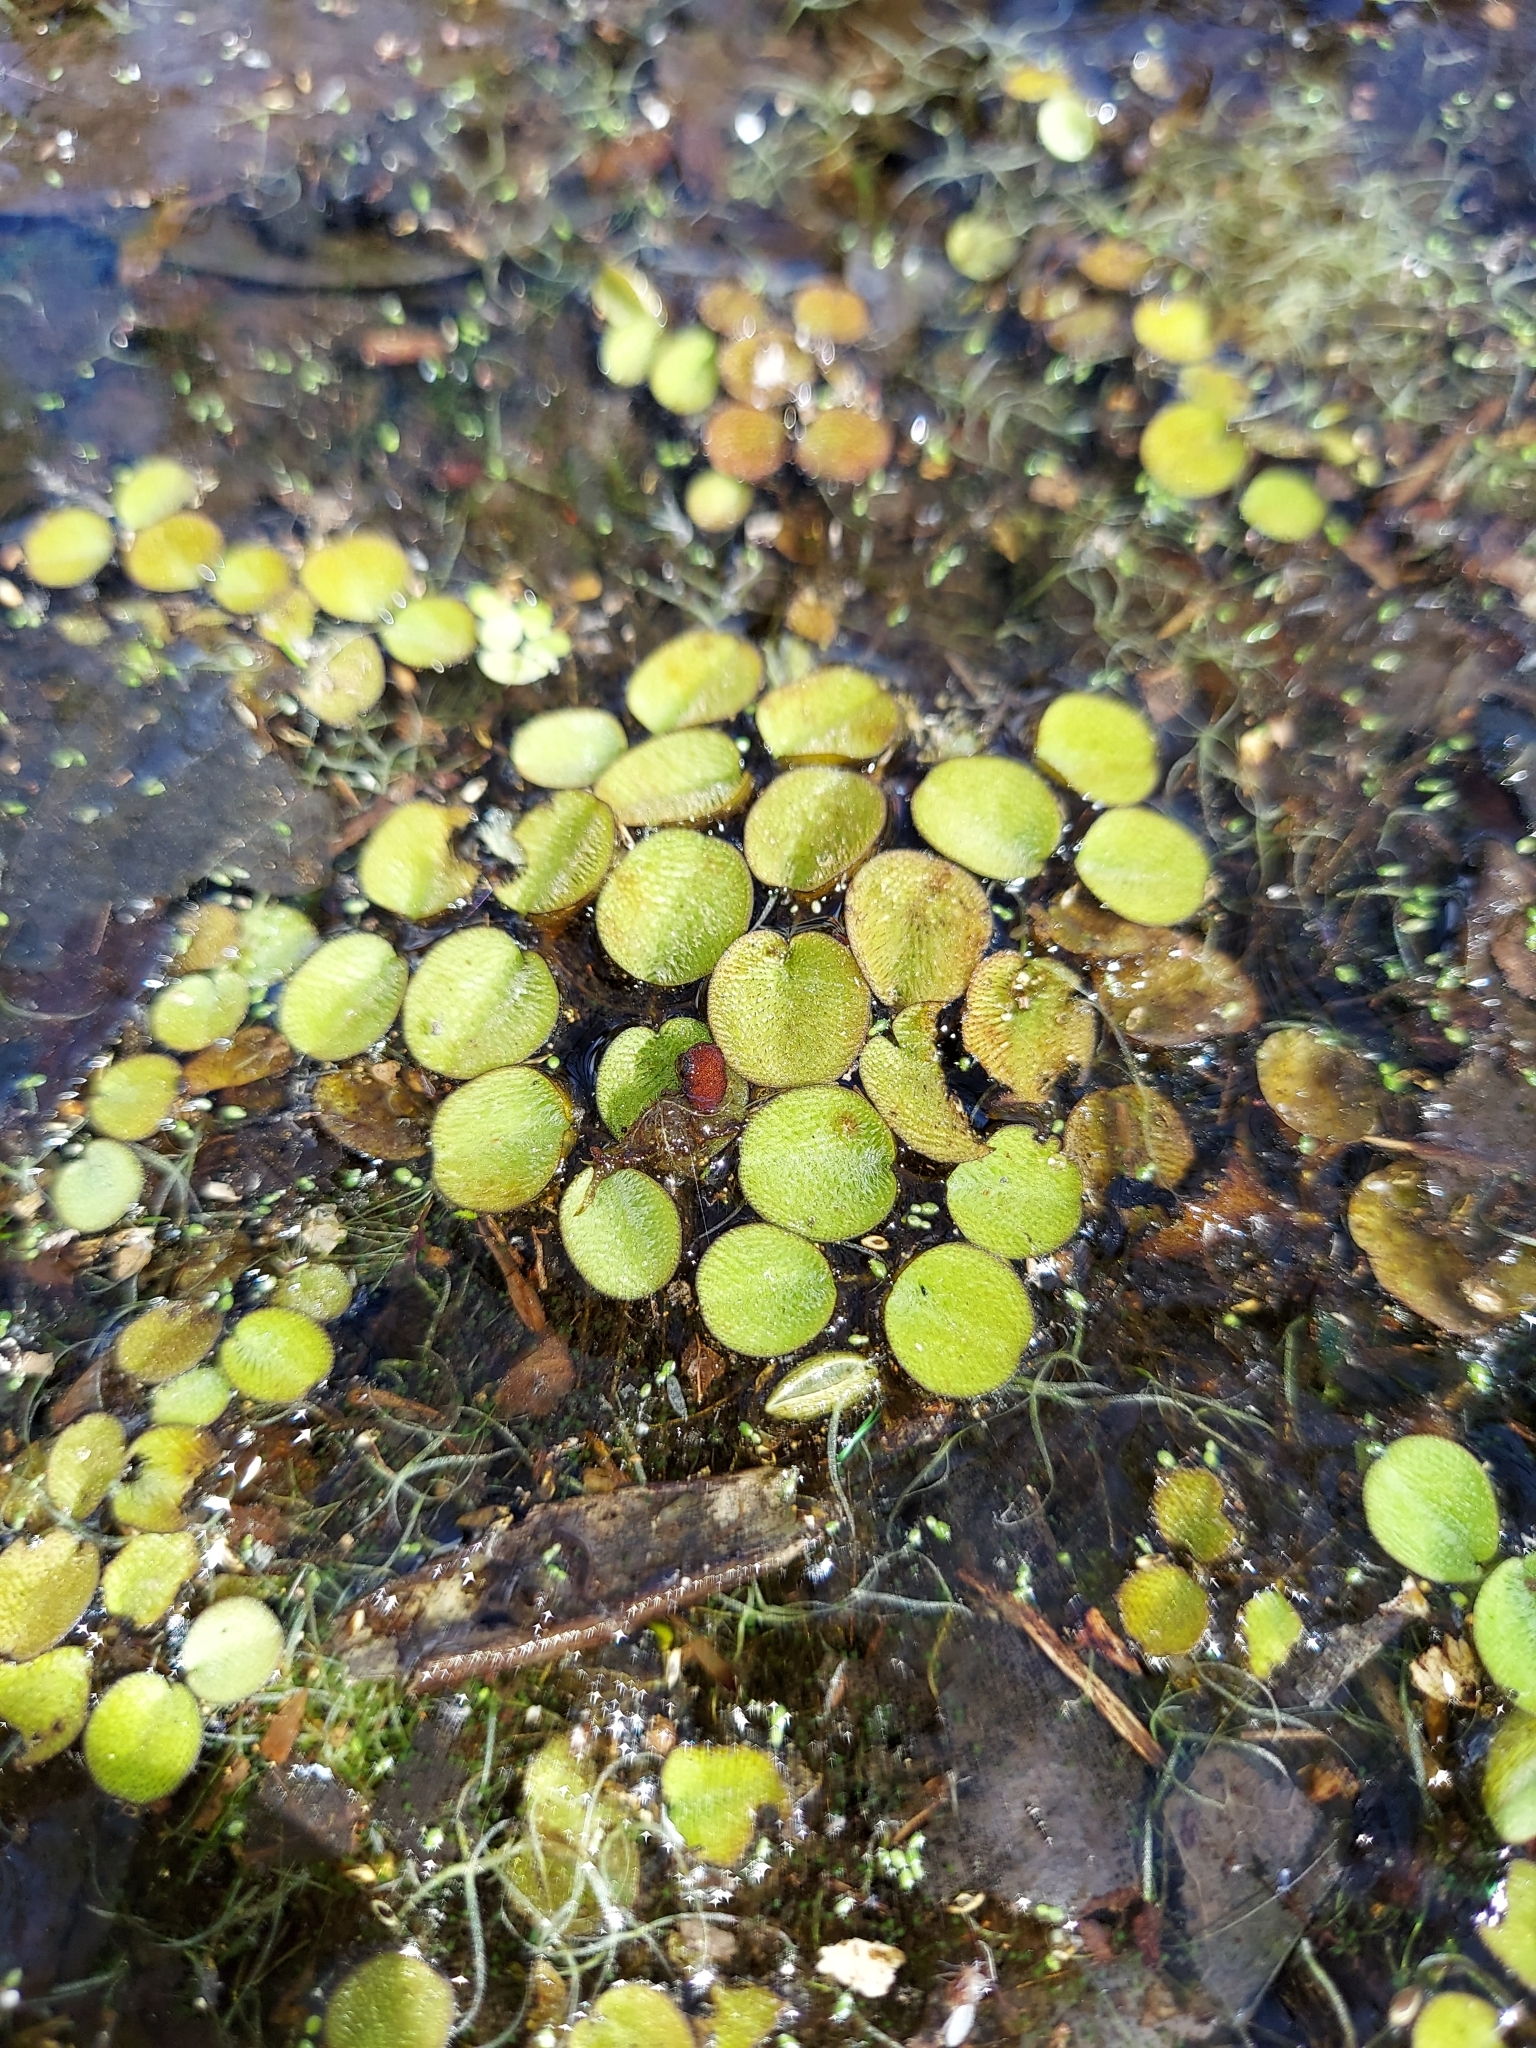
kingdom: Plantae
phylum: Tracheophyta
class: Polypodiopsida
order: Salviniales
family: Salviniaceae
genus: Salvinia
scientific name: Salvinia minima
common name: Water spangles
